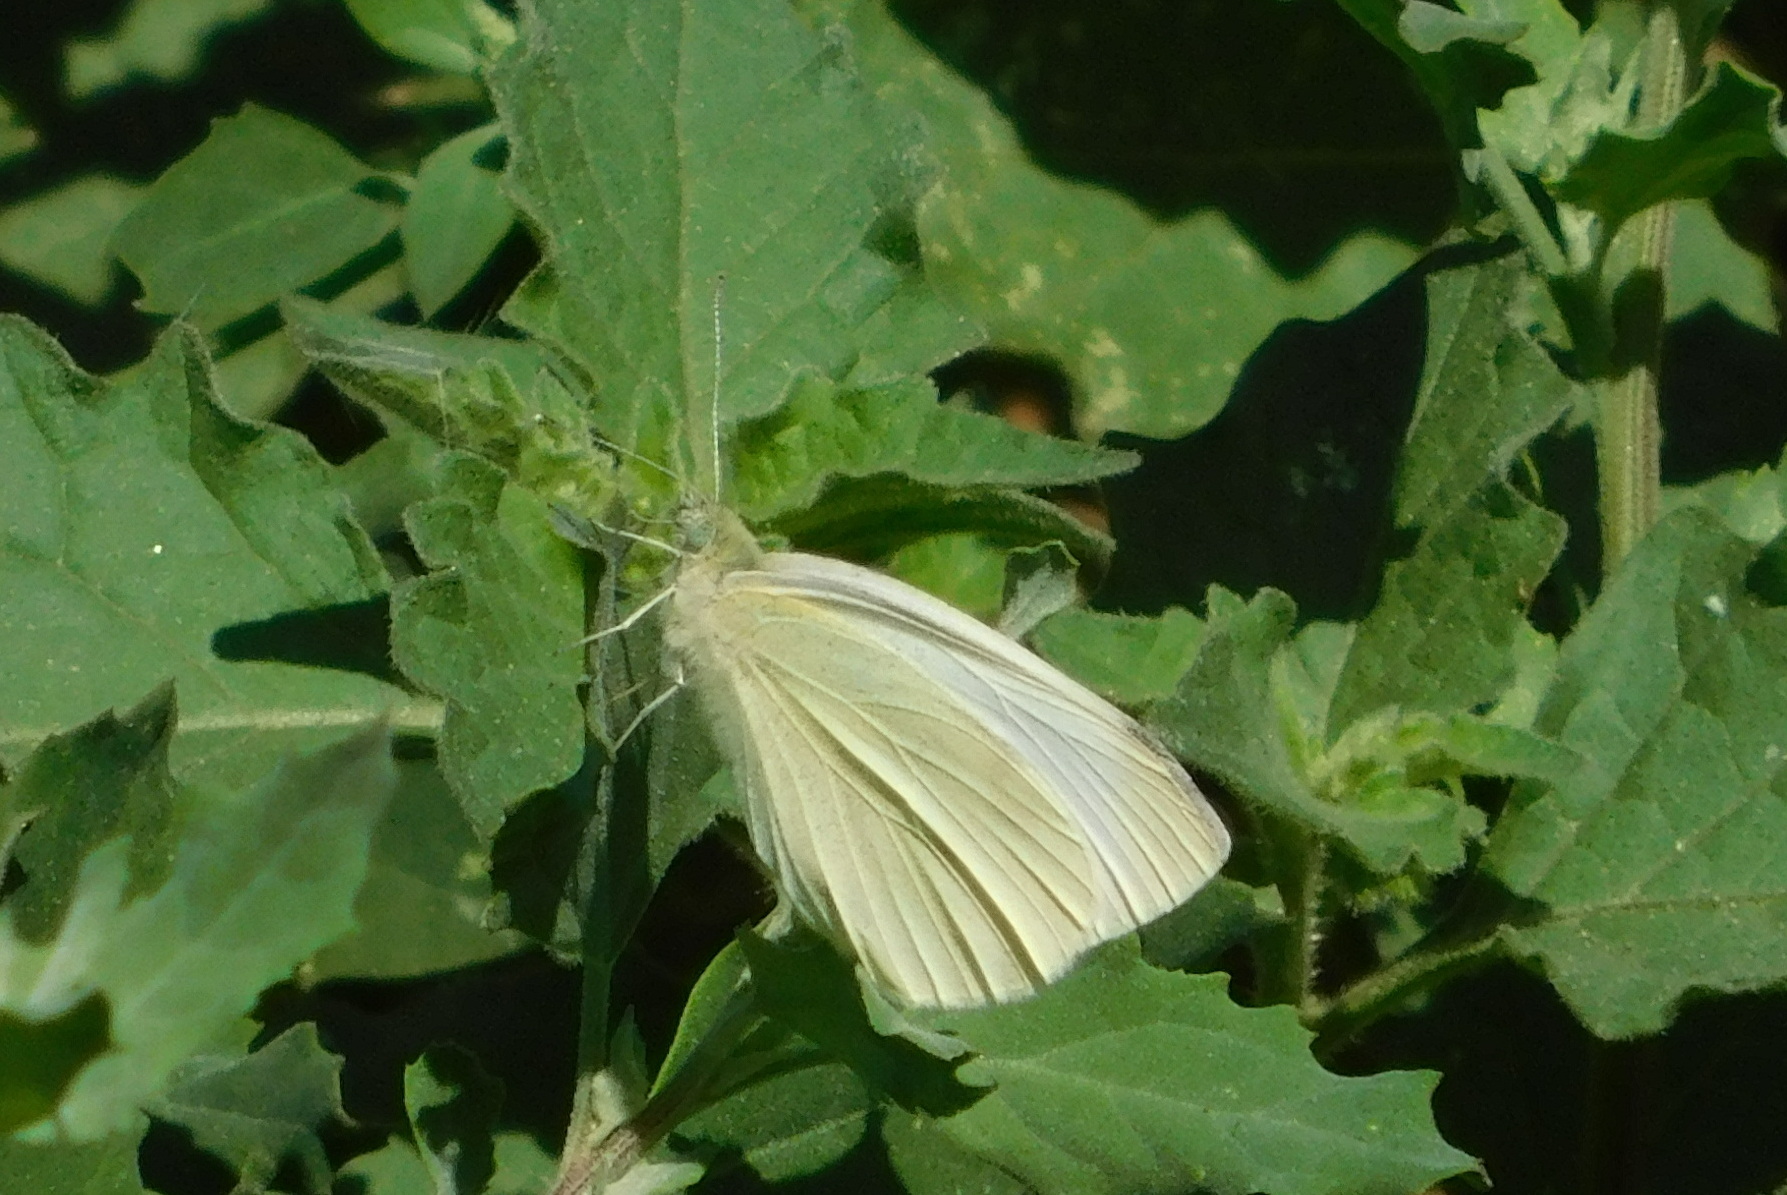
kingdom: Animalia
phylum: Arthropoda
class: Insecta
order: Lepidoptera
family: Pieridae
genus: Pieris
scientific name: Pieris rapae
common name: Small white
